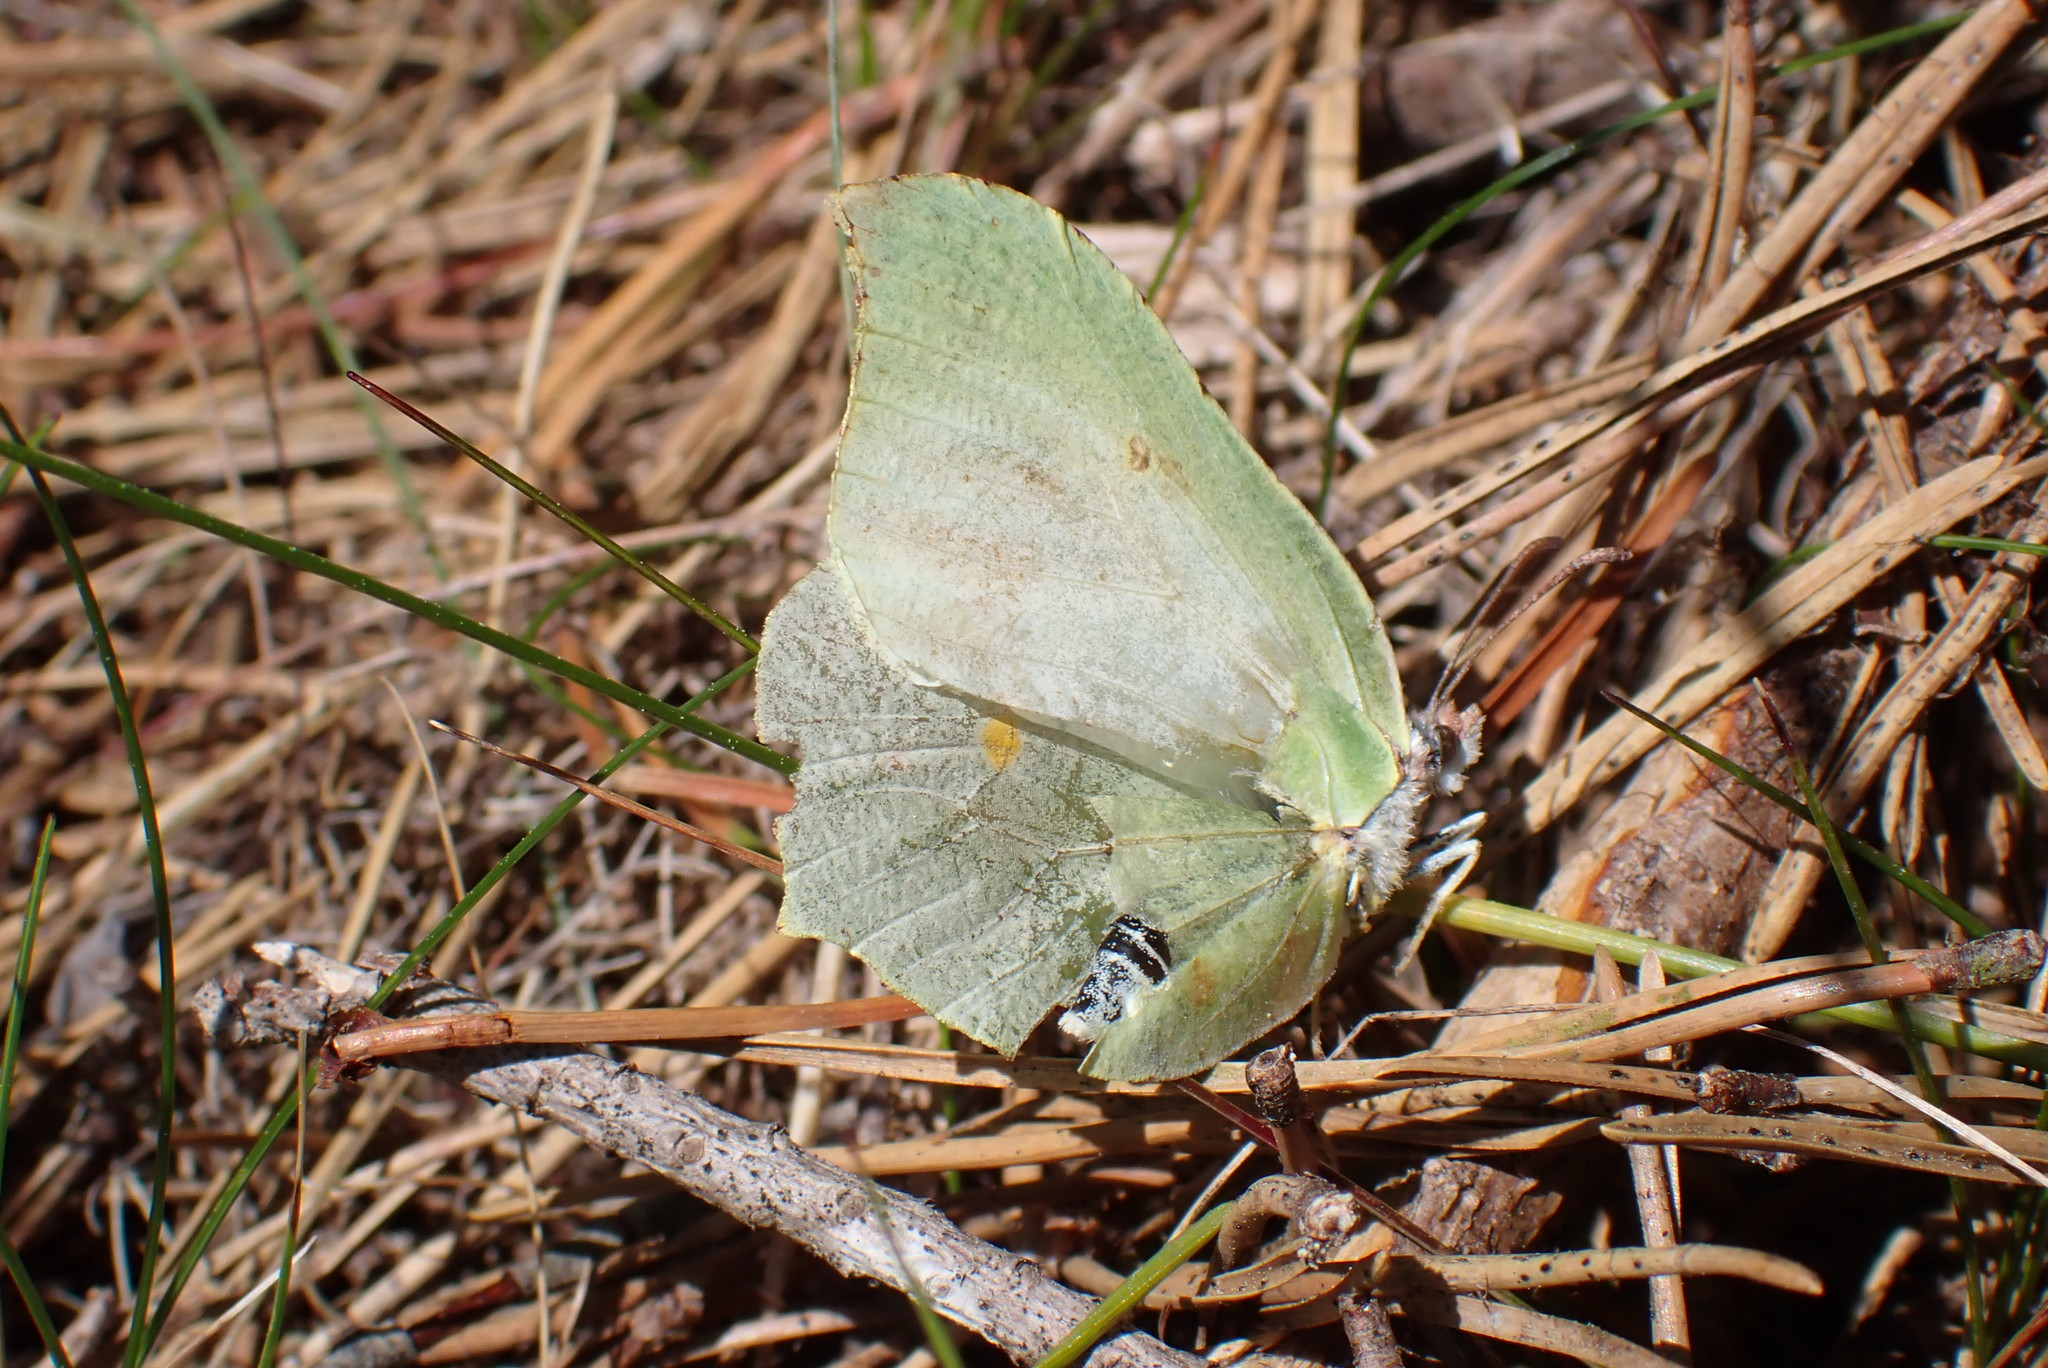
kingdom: Animalia
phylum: Arthropoda
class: Insecta
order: Lepidoptera
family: Pieridae
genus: Gonepteryx
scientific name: Gonepteryx rhamni
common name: Brimstone
